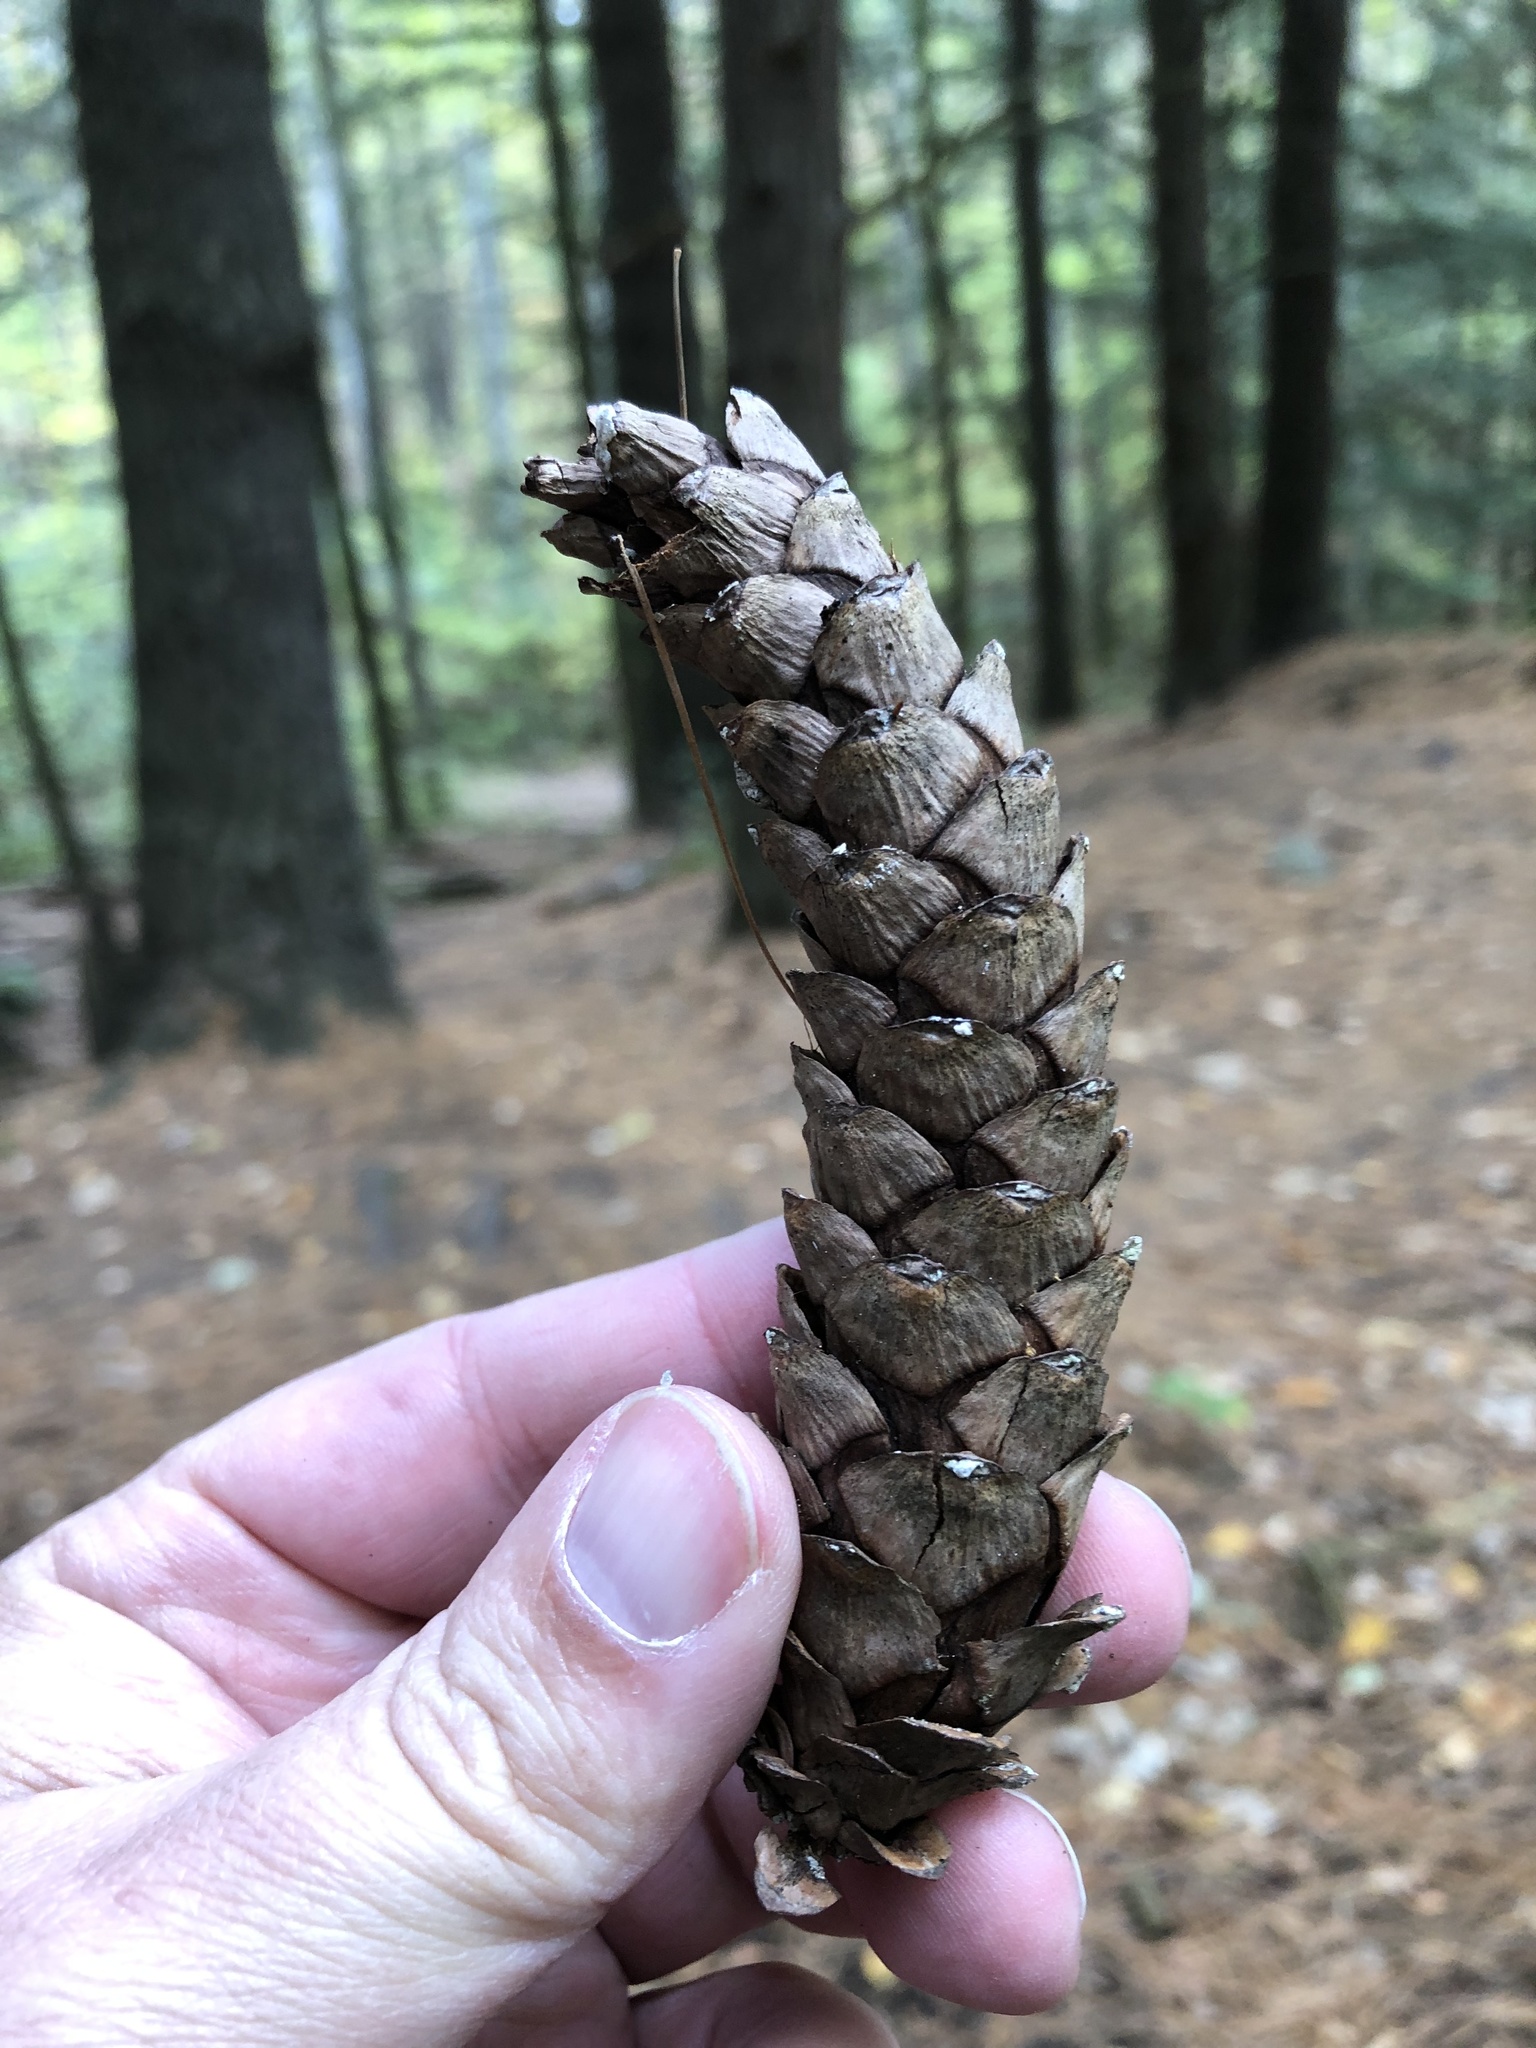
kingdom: Plantae
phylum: Tracheophyta
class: Pinopsida
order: Pinales
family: Pinaceae
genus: Pinus
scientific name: Pinus strobus
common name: Weymouth pine
